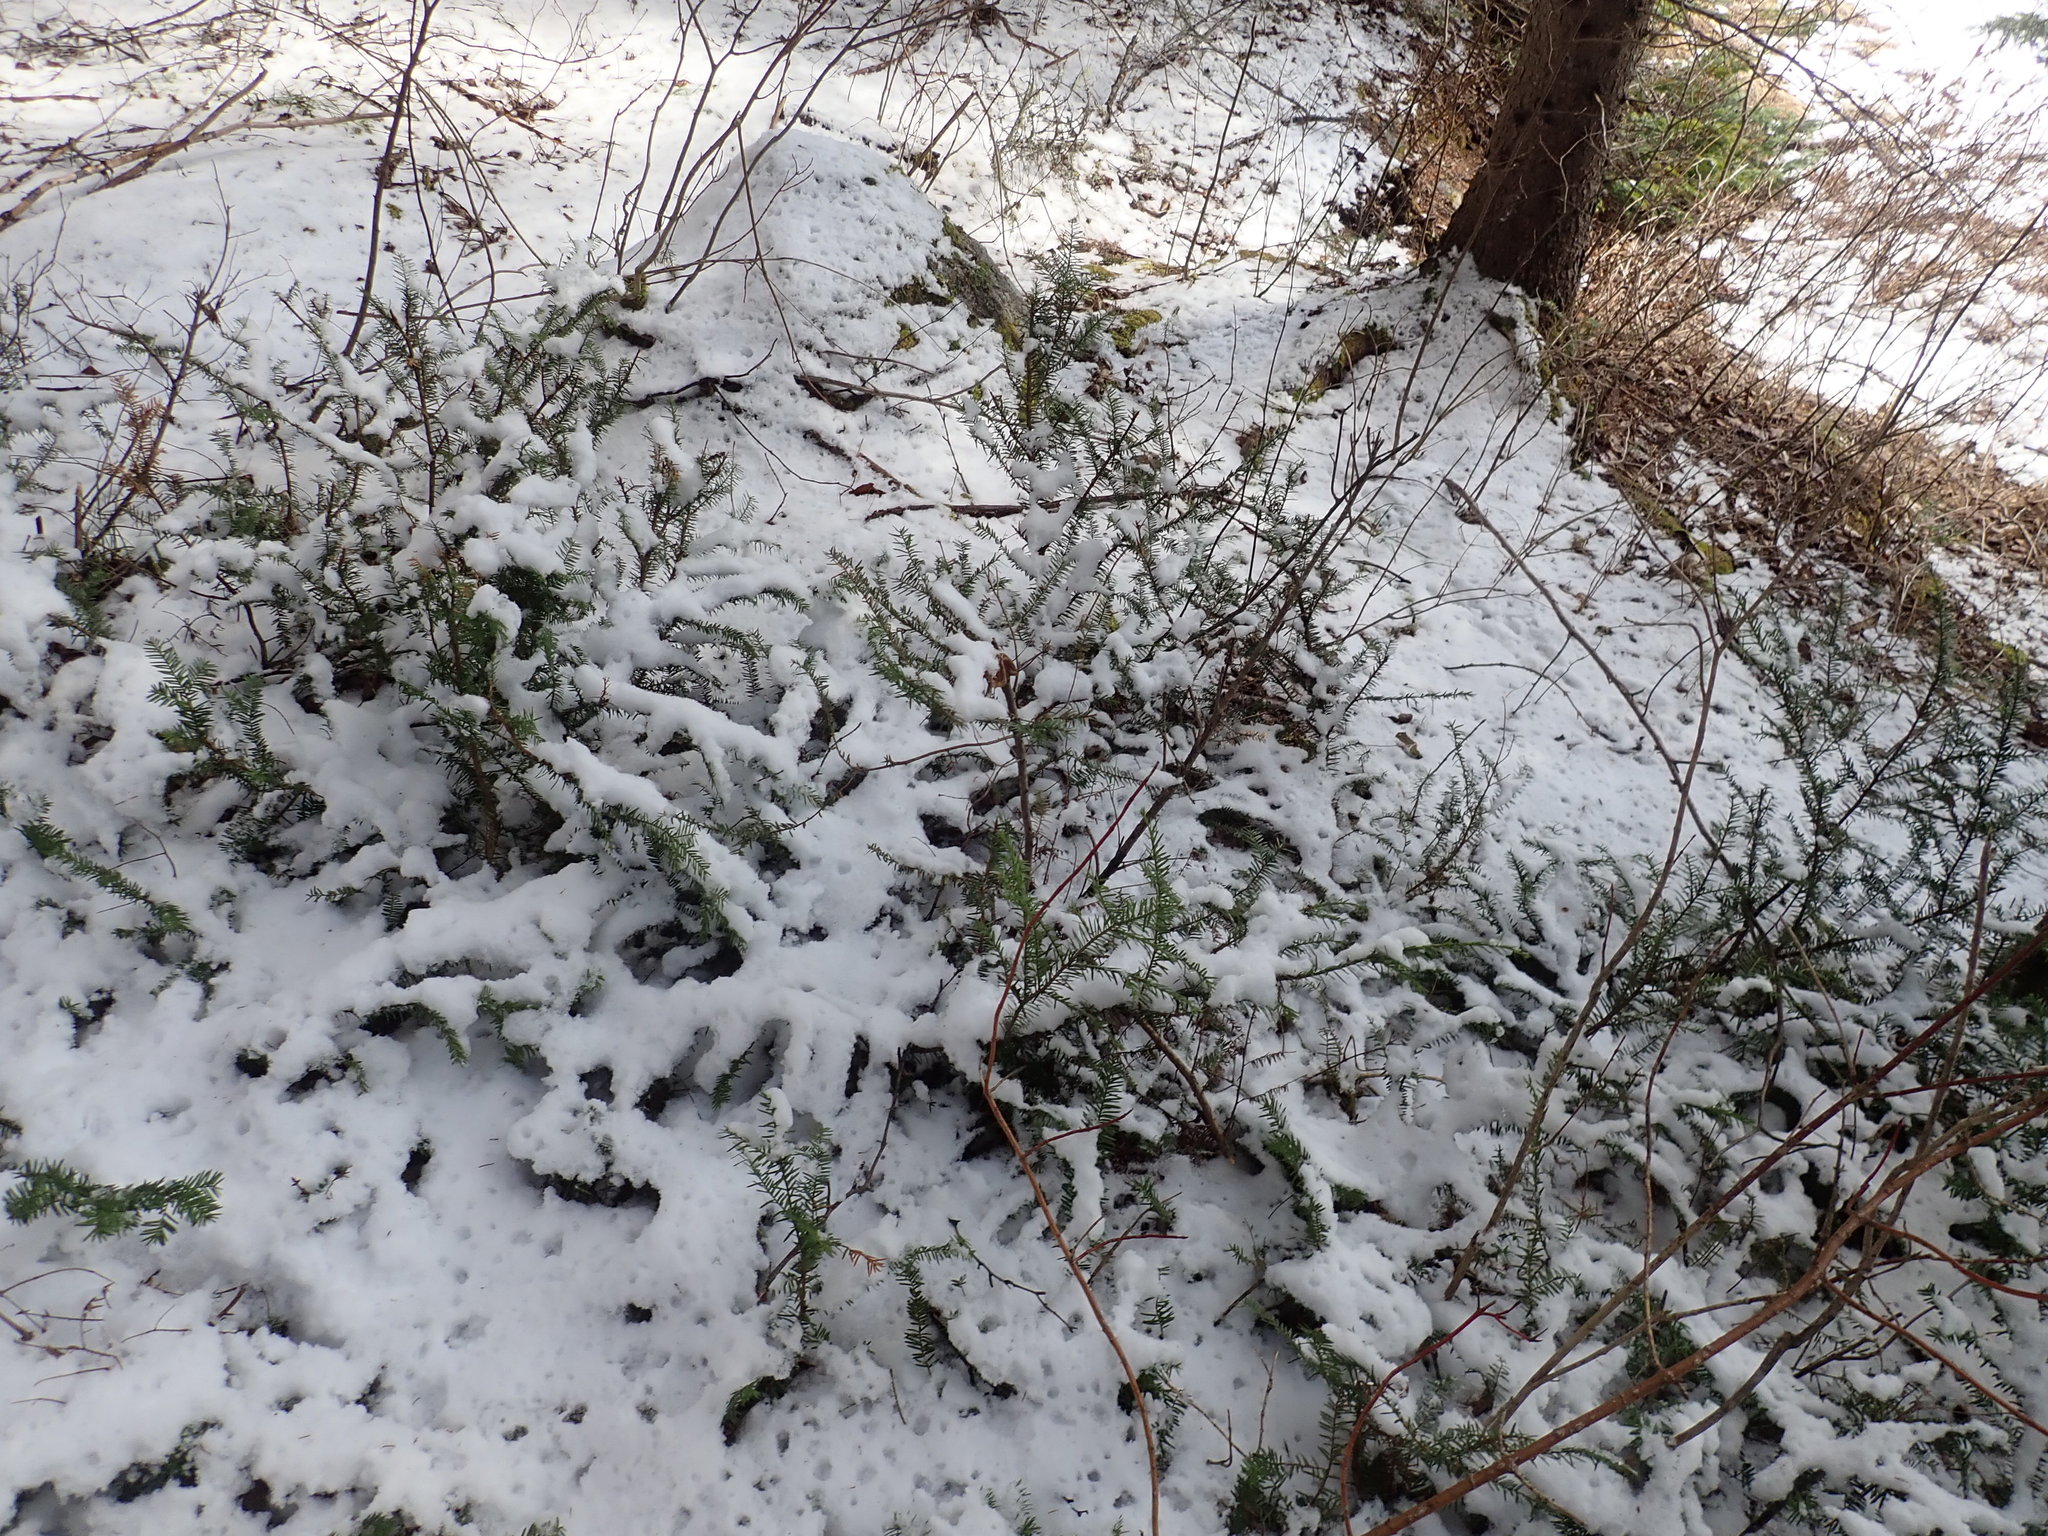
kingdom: Plantae
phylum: Tracheophyta
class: Pinopsida
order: Pinales
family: Taxaceae
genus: Taxus
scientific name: Taxus canadensis
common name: American yew
